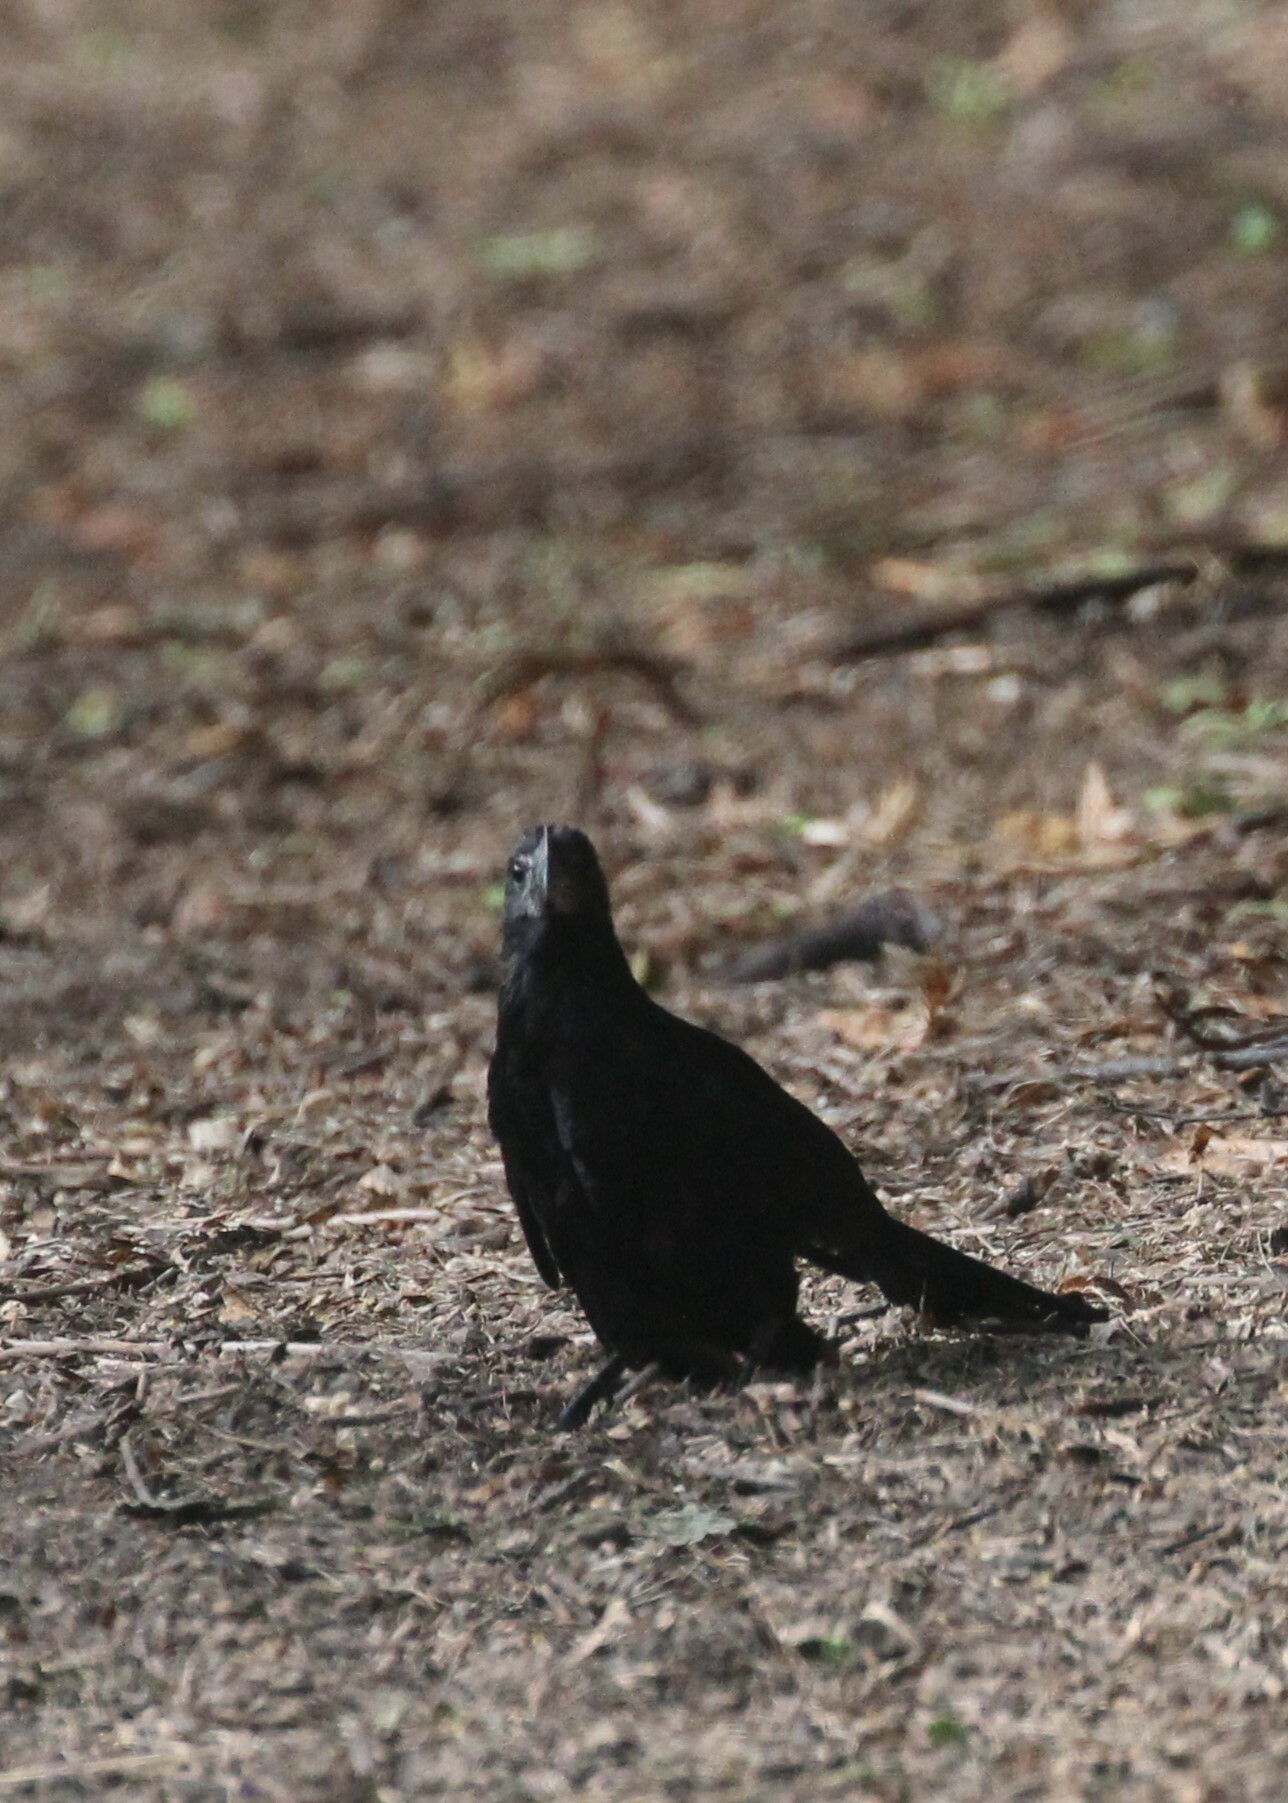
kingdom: Animalia
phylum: Chordata
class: Aves
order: Cuculiformes
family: Cuculidae
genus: Crotophaga
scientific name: Crotophaga ani
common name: Smooth-billed ani
